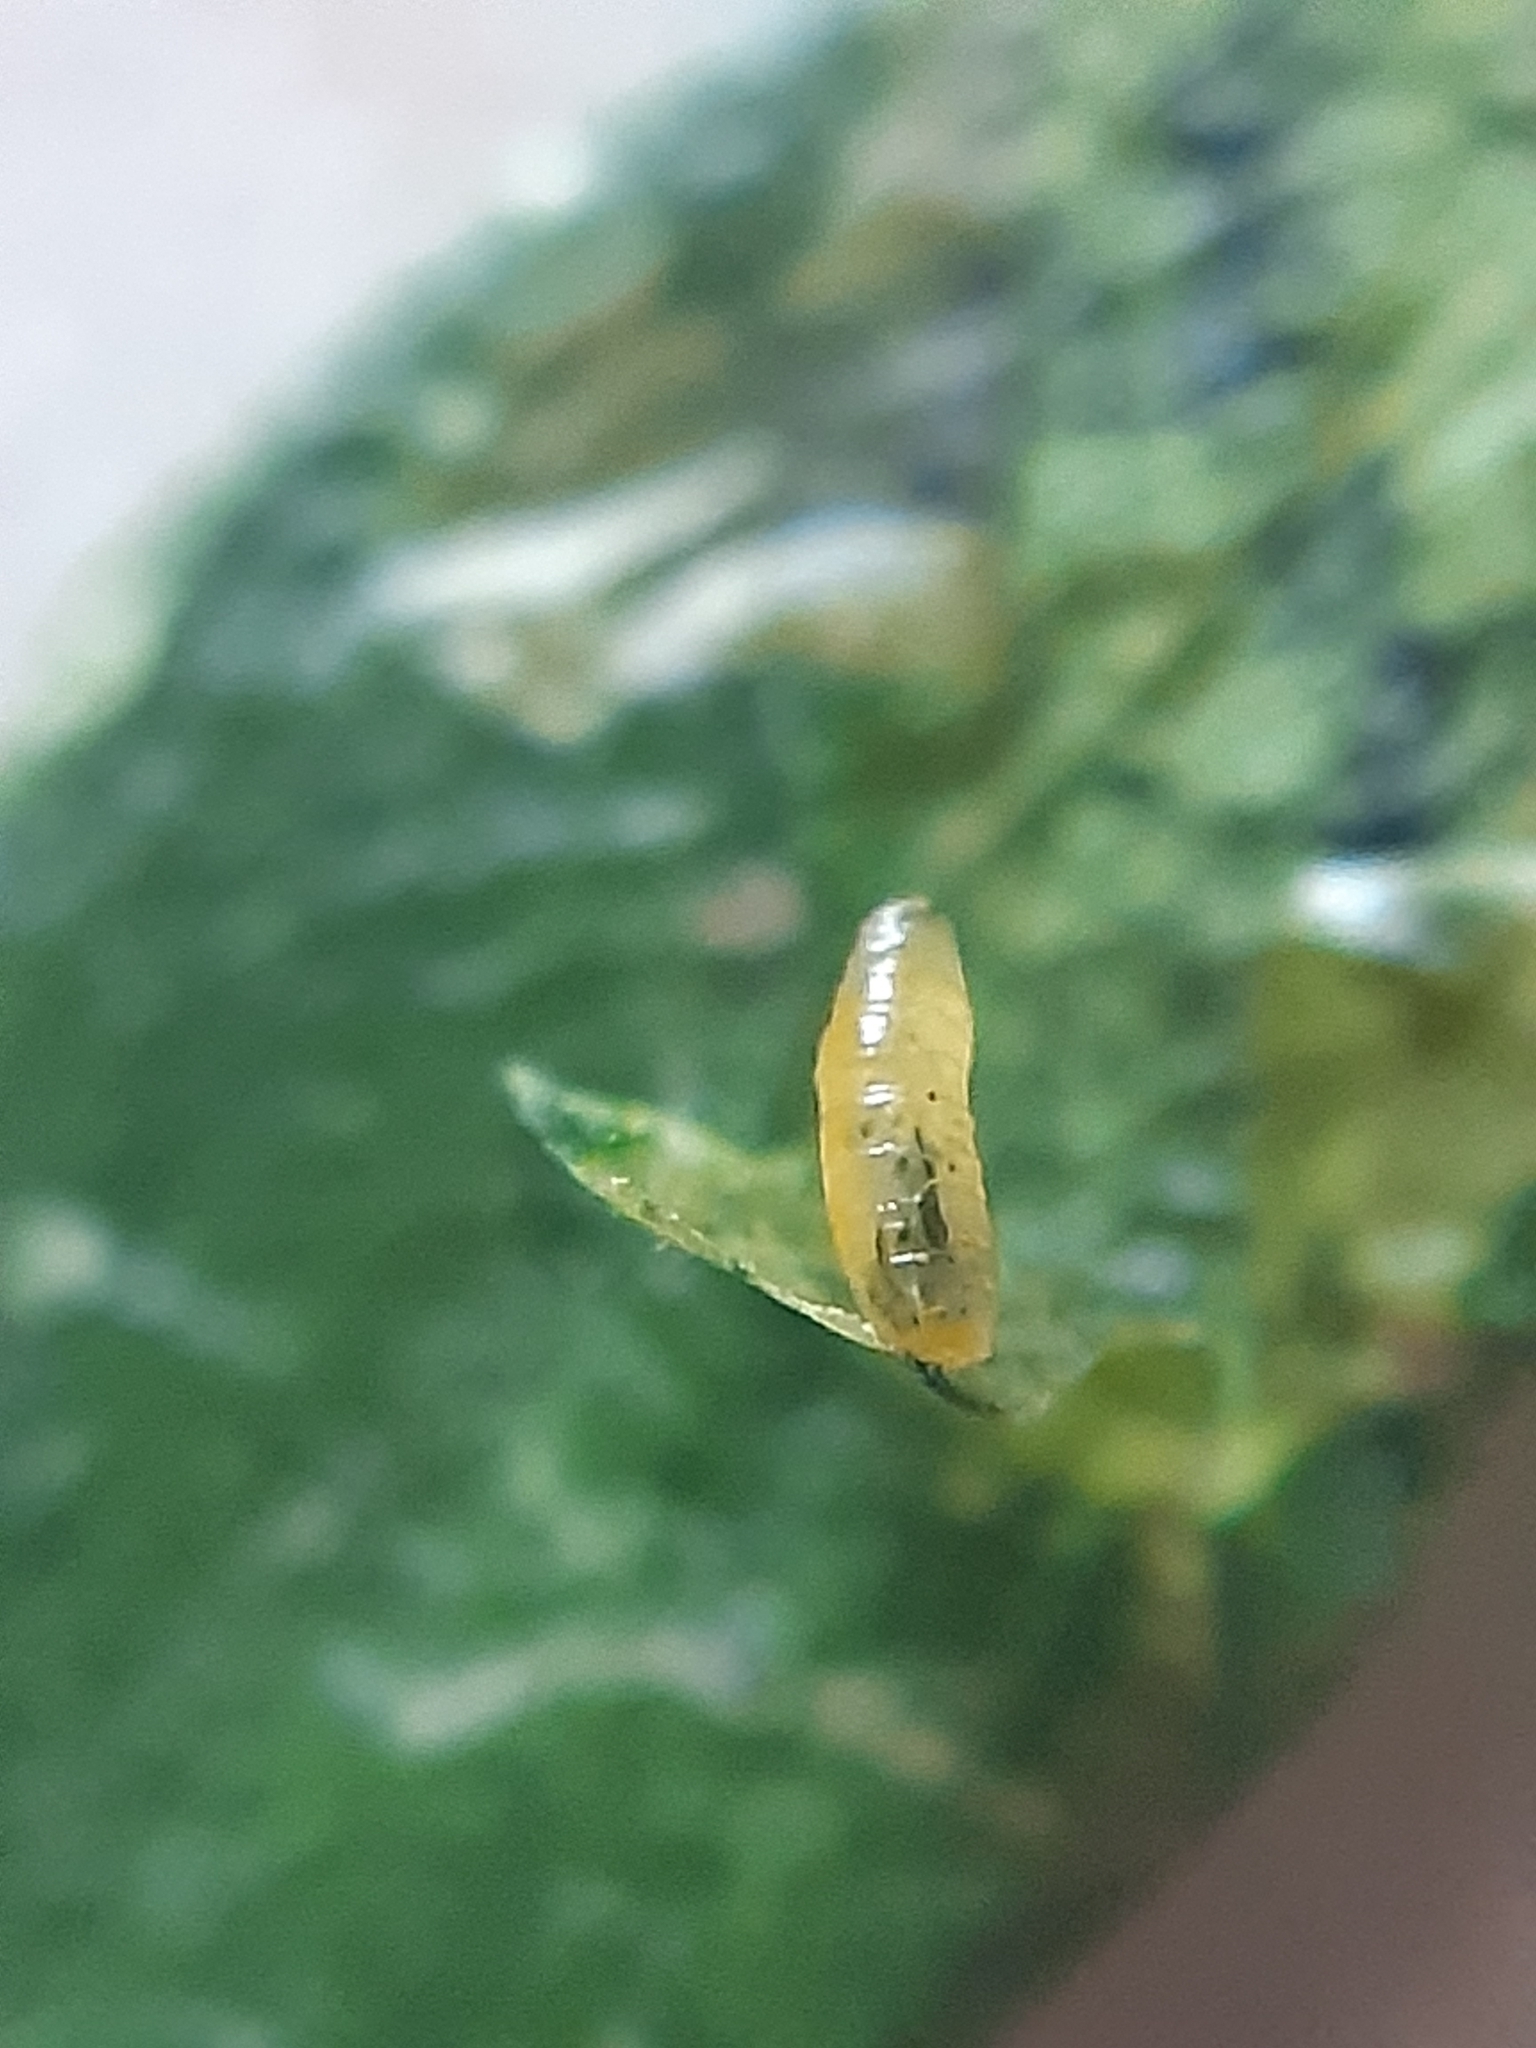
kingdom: Animalia
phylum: Arthropoda
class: Insecta
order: Diptera
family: Agromyzidae
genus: Liriomyza
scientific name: Liriomyza polygalae
